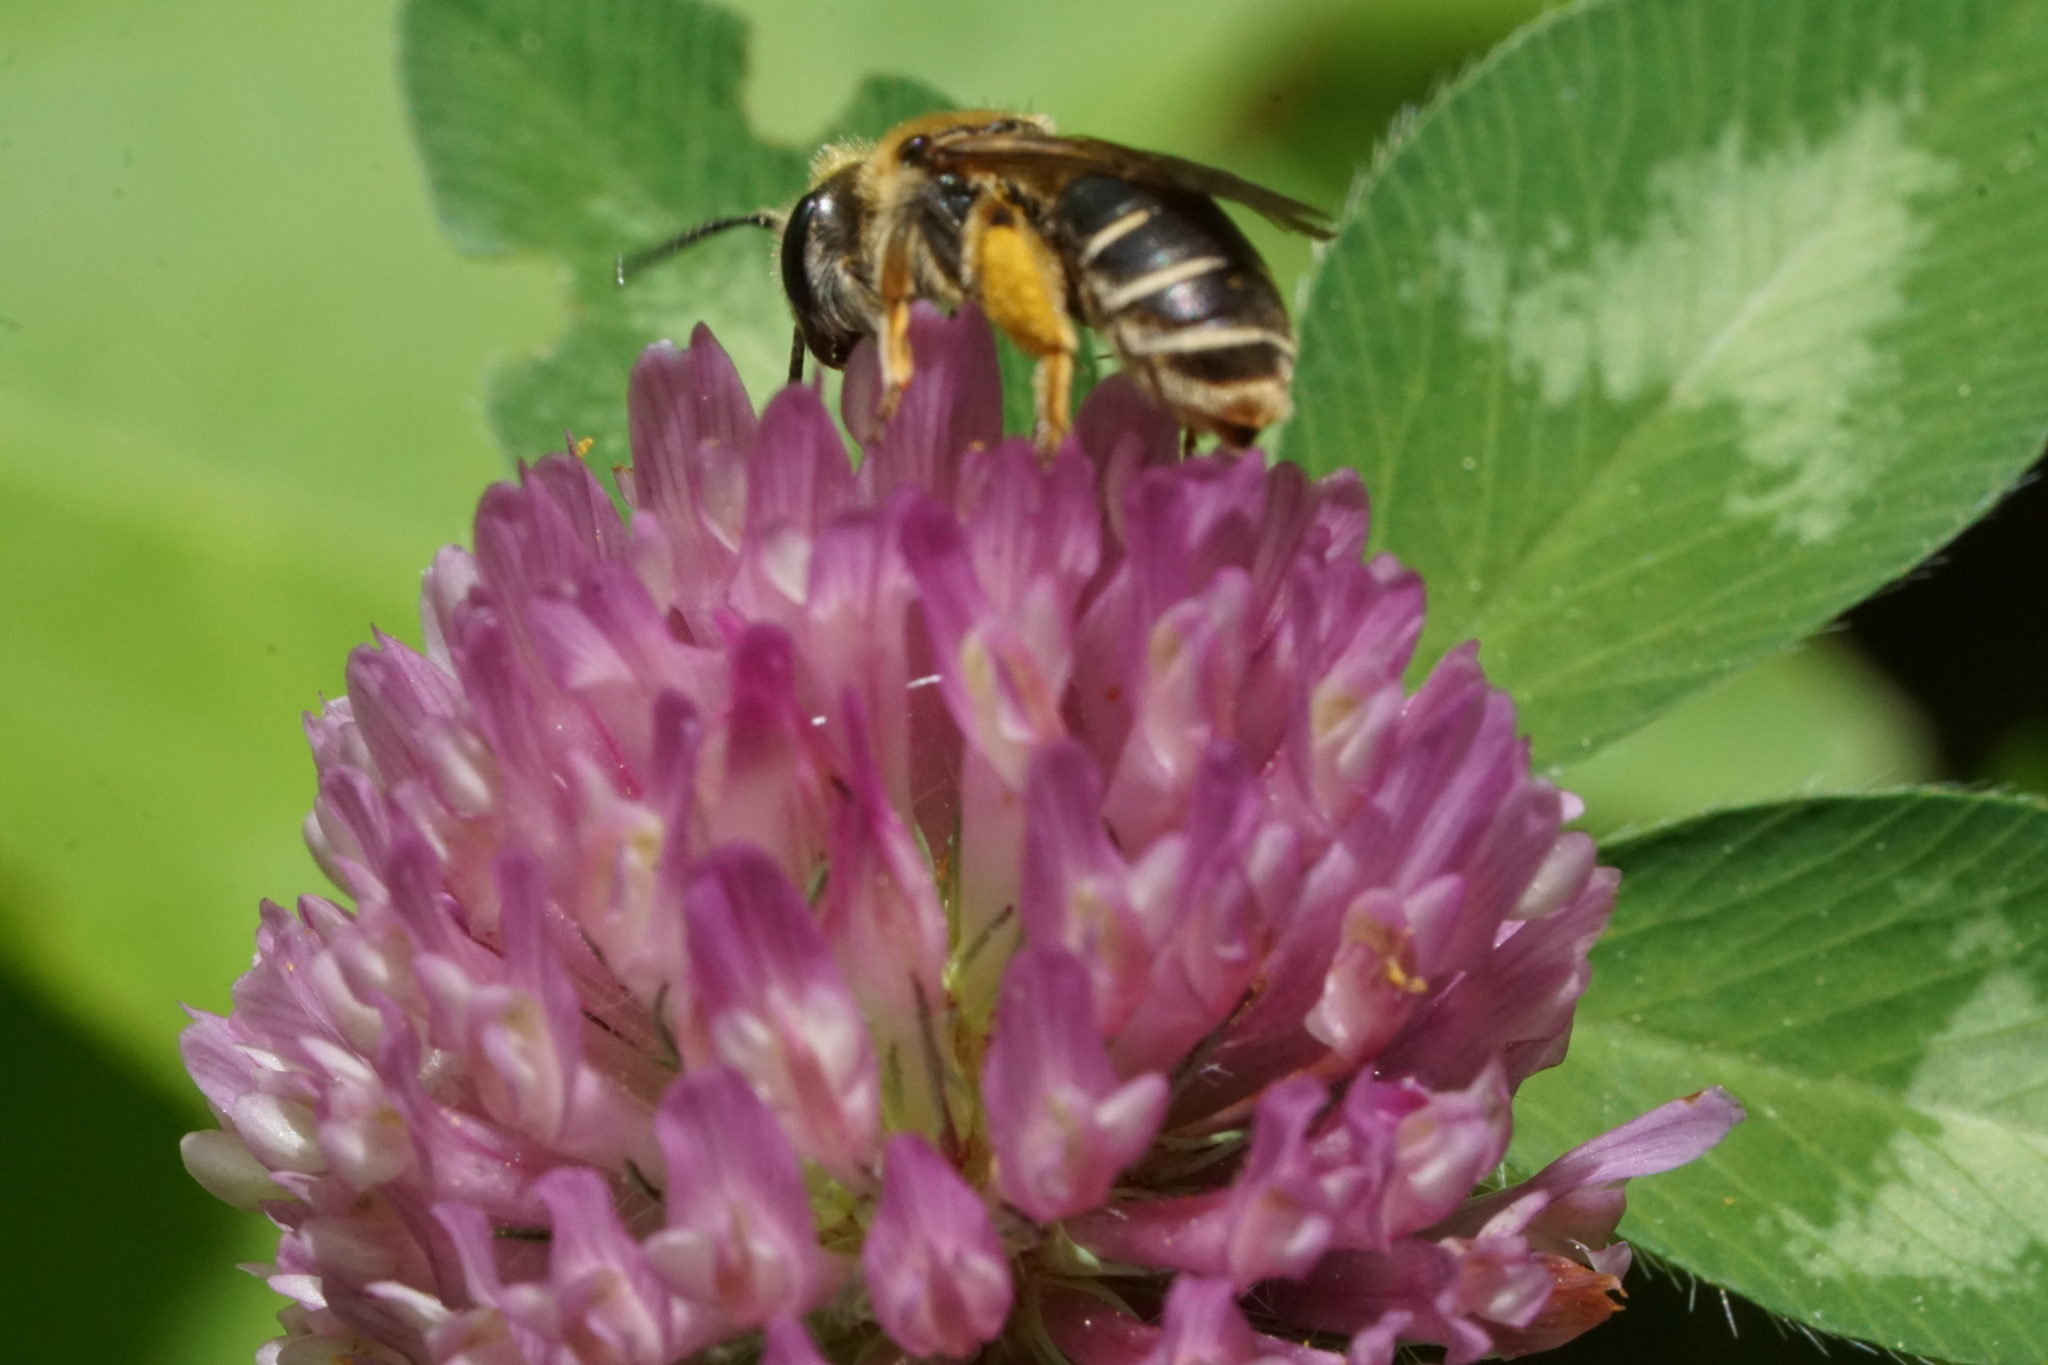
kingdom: Animalia
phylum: Arthropoda
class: Insecta
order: Hymenoptera
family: Andrenidae
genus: Andrena
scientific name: Andrena wilkella
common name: Wilke's mining bee
